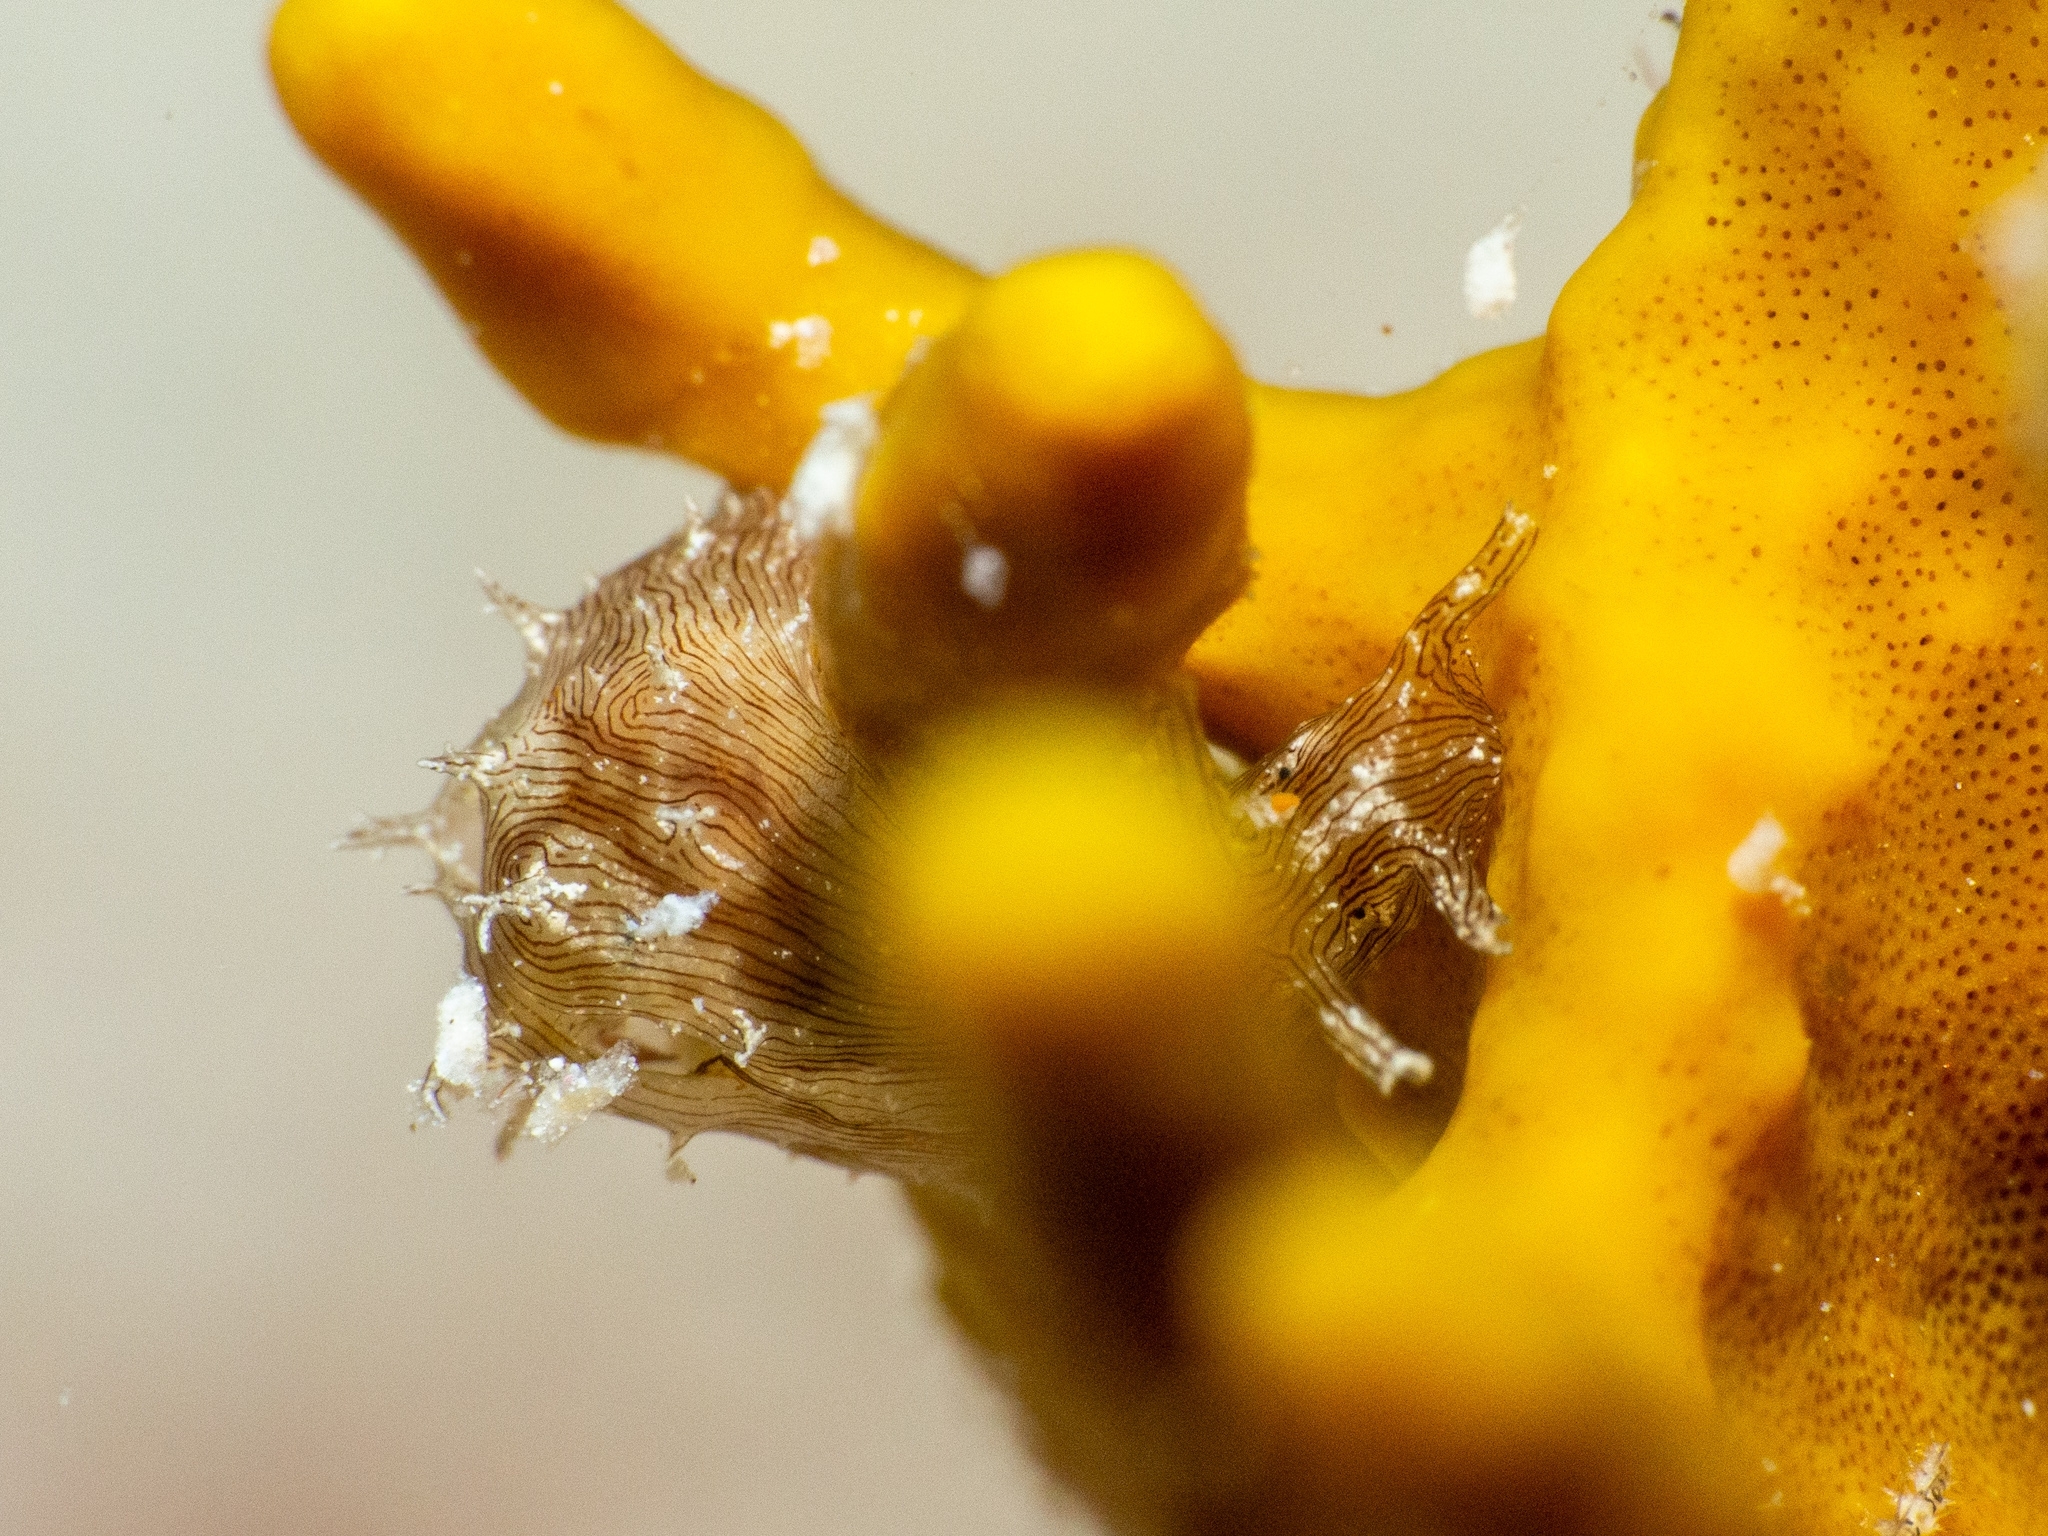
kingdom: Animalia
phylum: Mollusca
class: Gastropoda
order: Aplysiida
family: Aplysiidae
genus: Stylocheilus
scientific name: Stylocheilus polyomma
